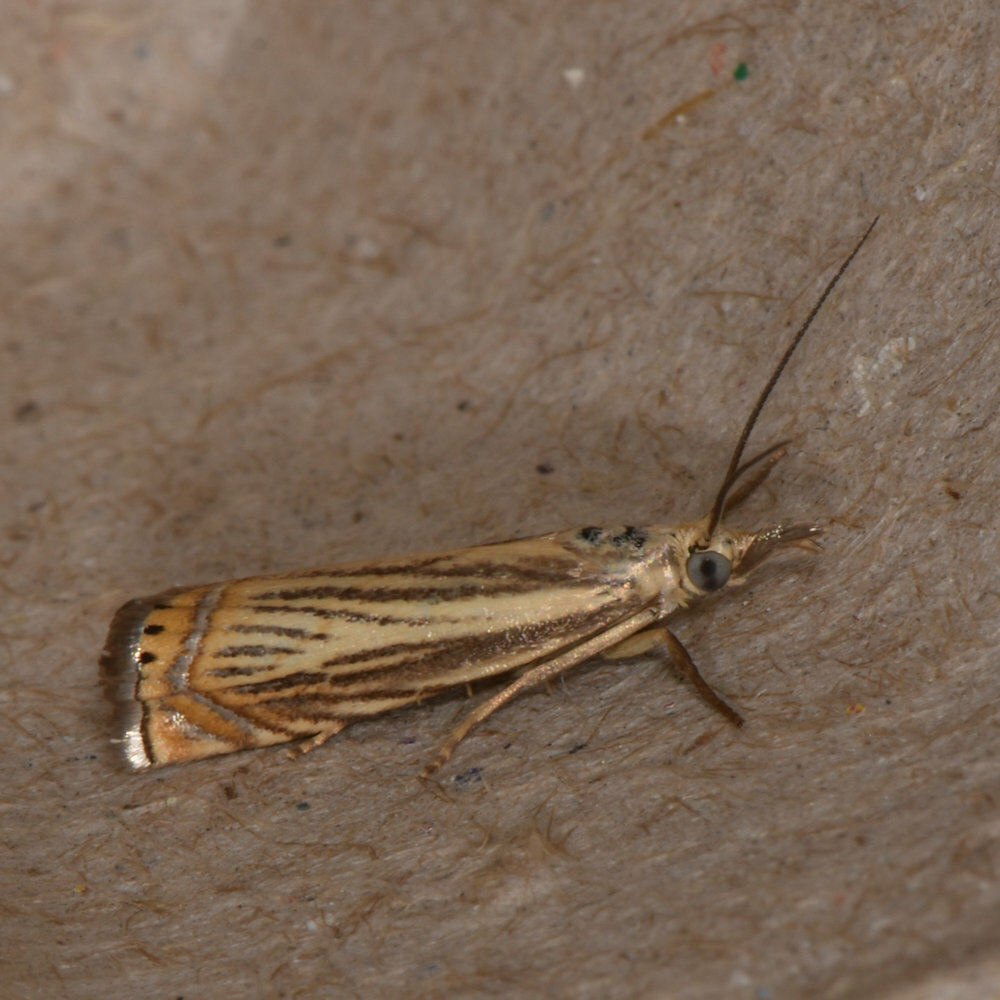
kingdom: Animalia
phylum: Arthropoda
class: Insecta
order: Lepidoptera
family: Crambidae
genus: Chrysoteuchia
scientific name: Chrysoteuchia topiarius
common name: Topiary grass-veneer
